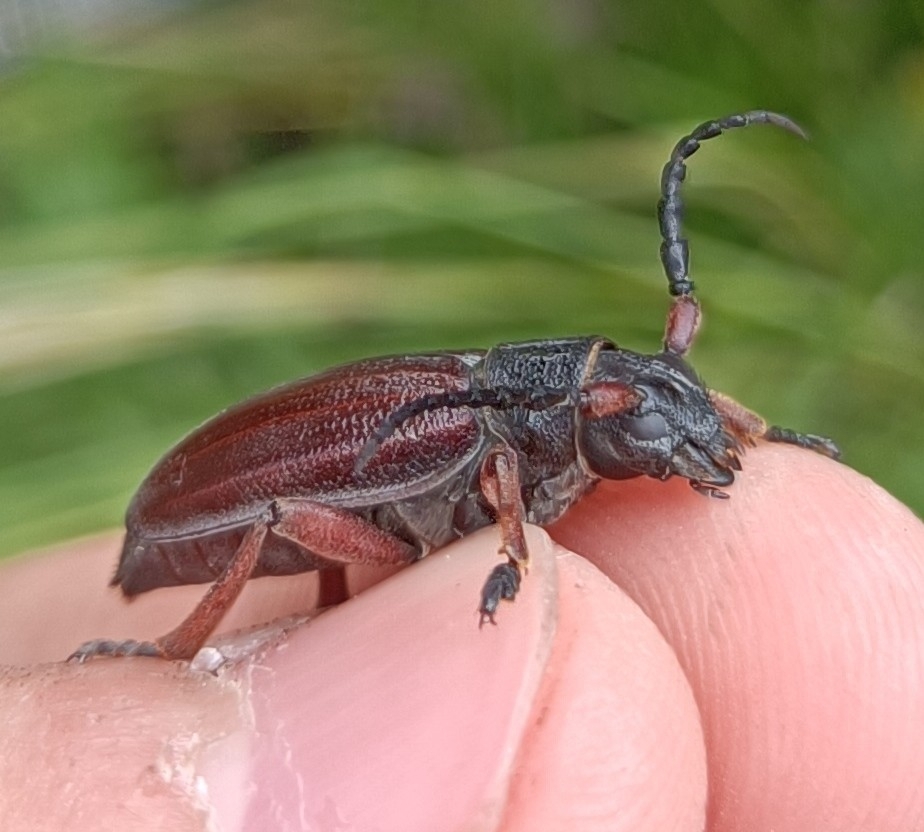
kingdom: Animalia
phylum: Arthropoda
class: Insecta
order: Coleoptera
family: Cerambycidae
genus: Dorcadion
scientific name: Dorcadion fulvum
